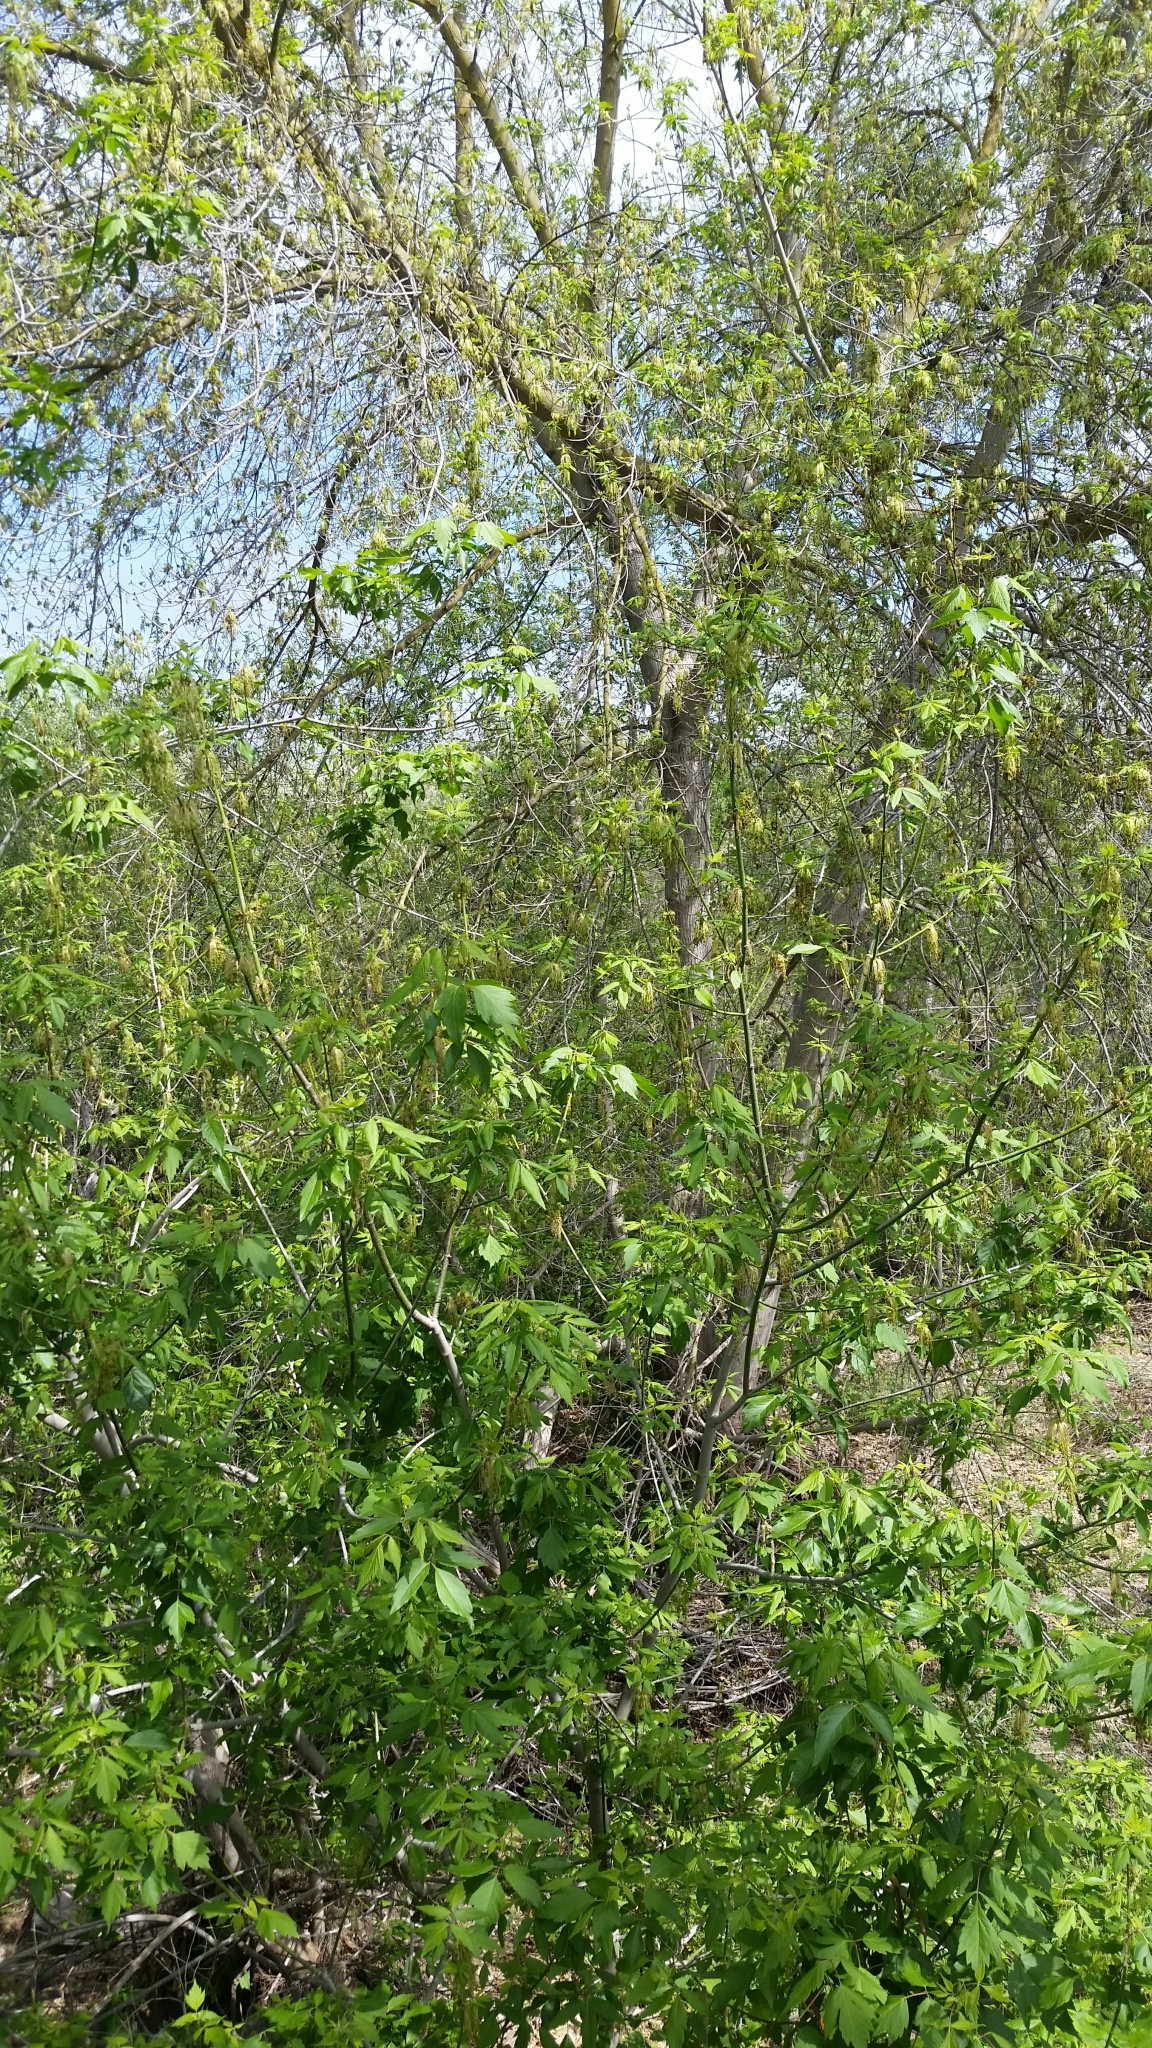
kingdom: Plantae
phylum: Tracheophyta
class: Magnoliopsida
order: Sapindales
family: Sapindaceae
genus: Acer
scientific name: Acer negundo
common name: Ashleaf maple
